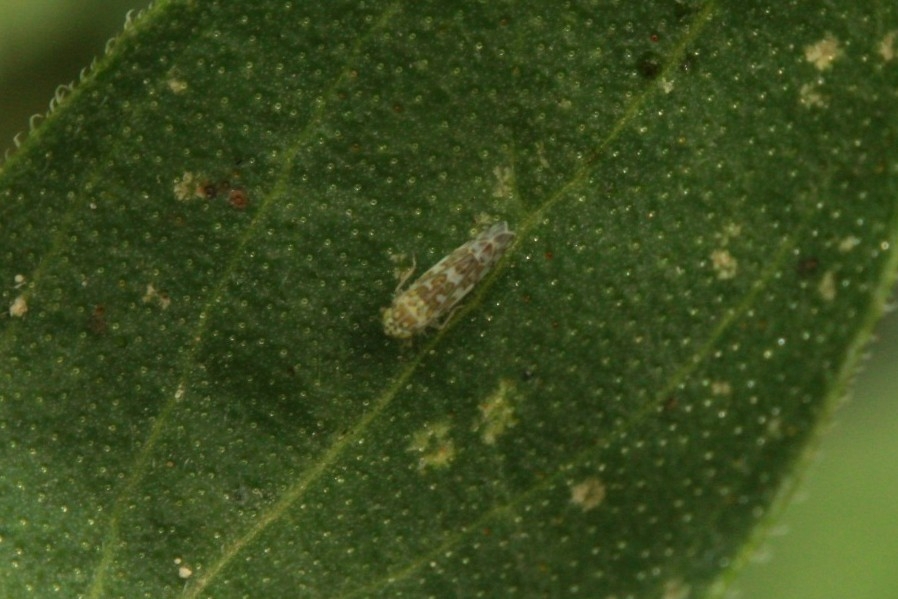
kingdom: Animalia
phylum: Arthropoda
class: Insecta
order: Hemiptera
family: Cicadellidae
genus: Eupteryx
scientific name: Eupteryx decemnotata
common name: Ligurian leafhopper
